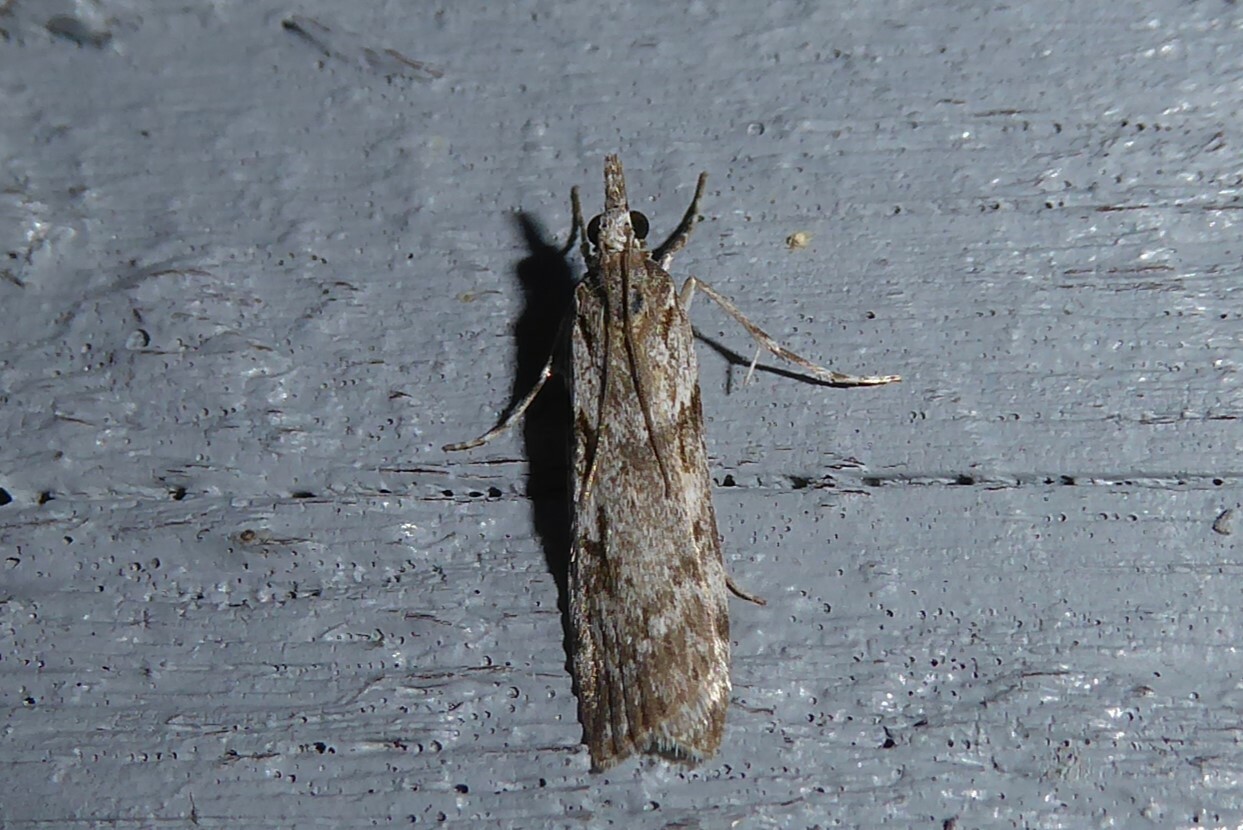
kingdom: Animalia
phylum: Arthropoda
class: Insecta
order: Lepidoptera
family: Crambidae
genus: Scoparia
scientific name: Scoparia halopis
